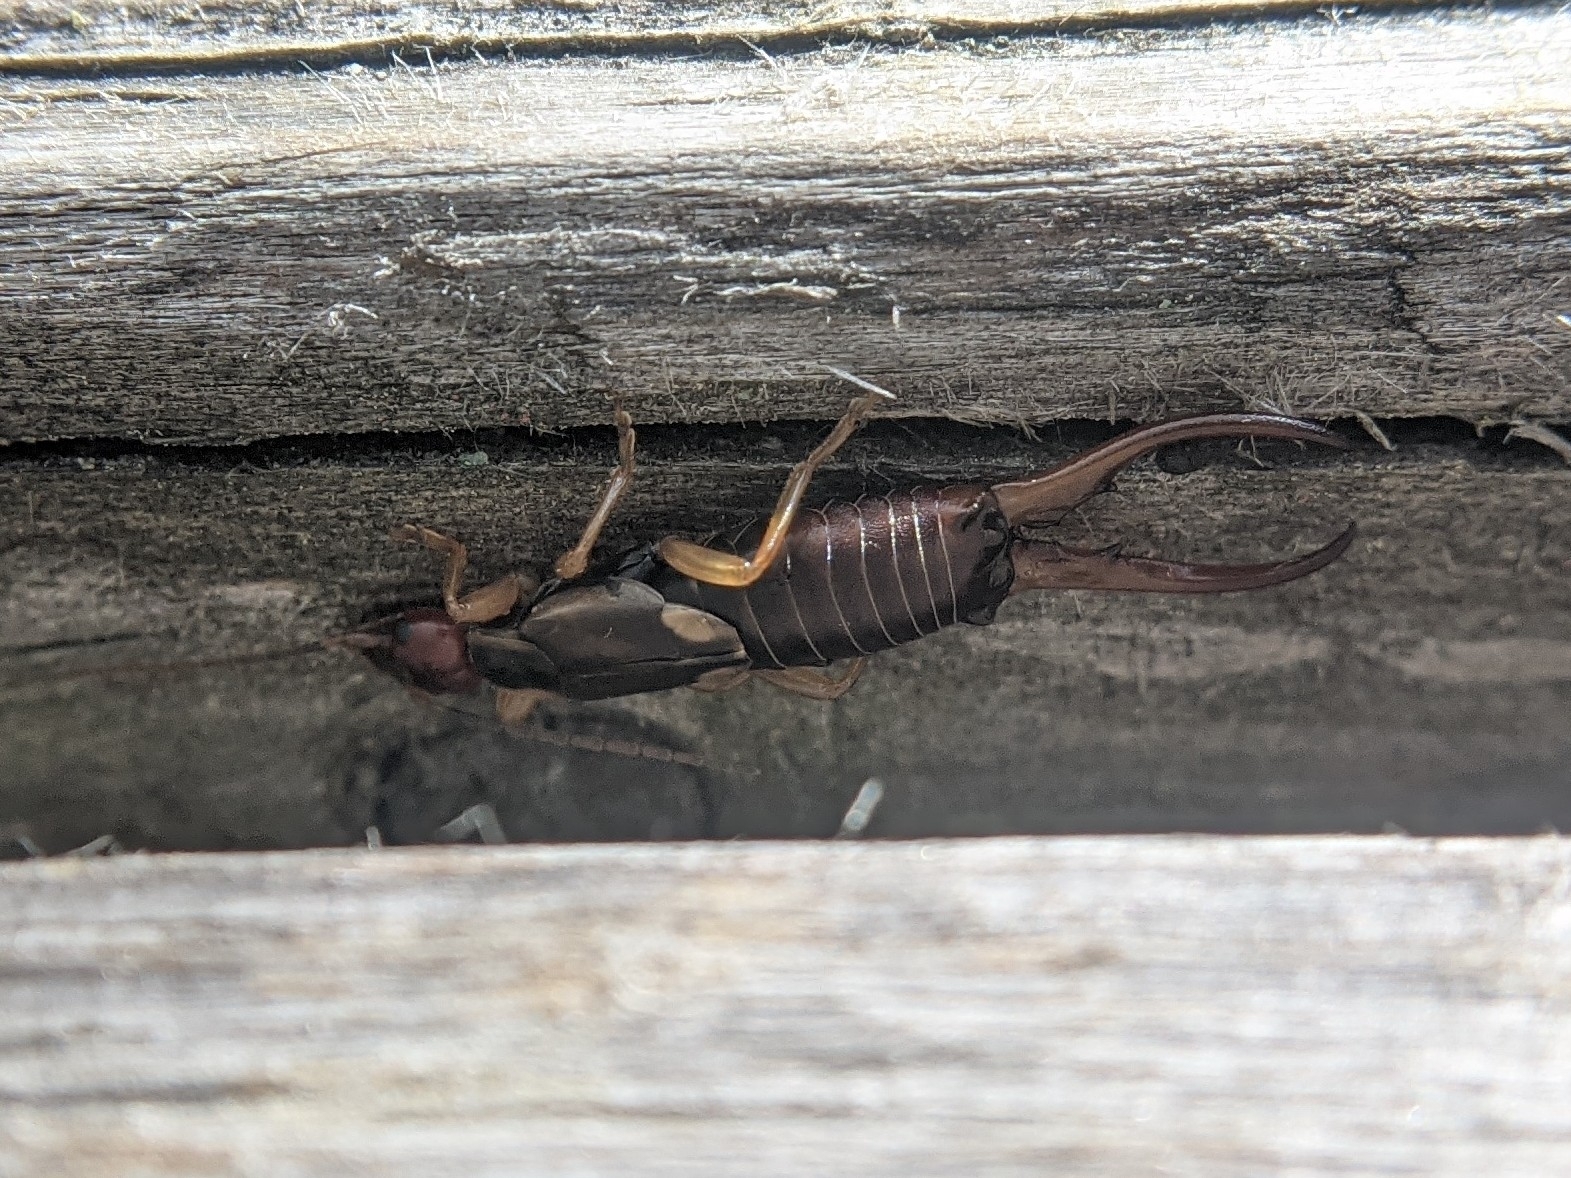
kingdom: Animalia
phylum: Arthropoda
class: Insecta
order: Dermaptera
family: Forficulidae
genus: Forficula
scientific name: Forficula
